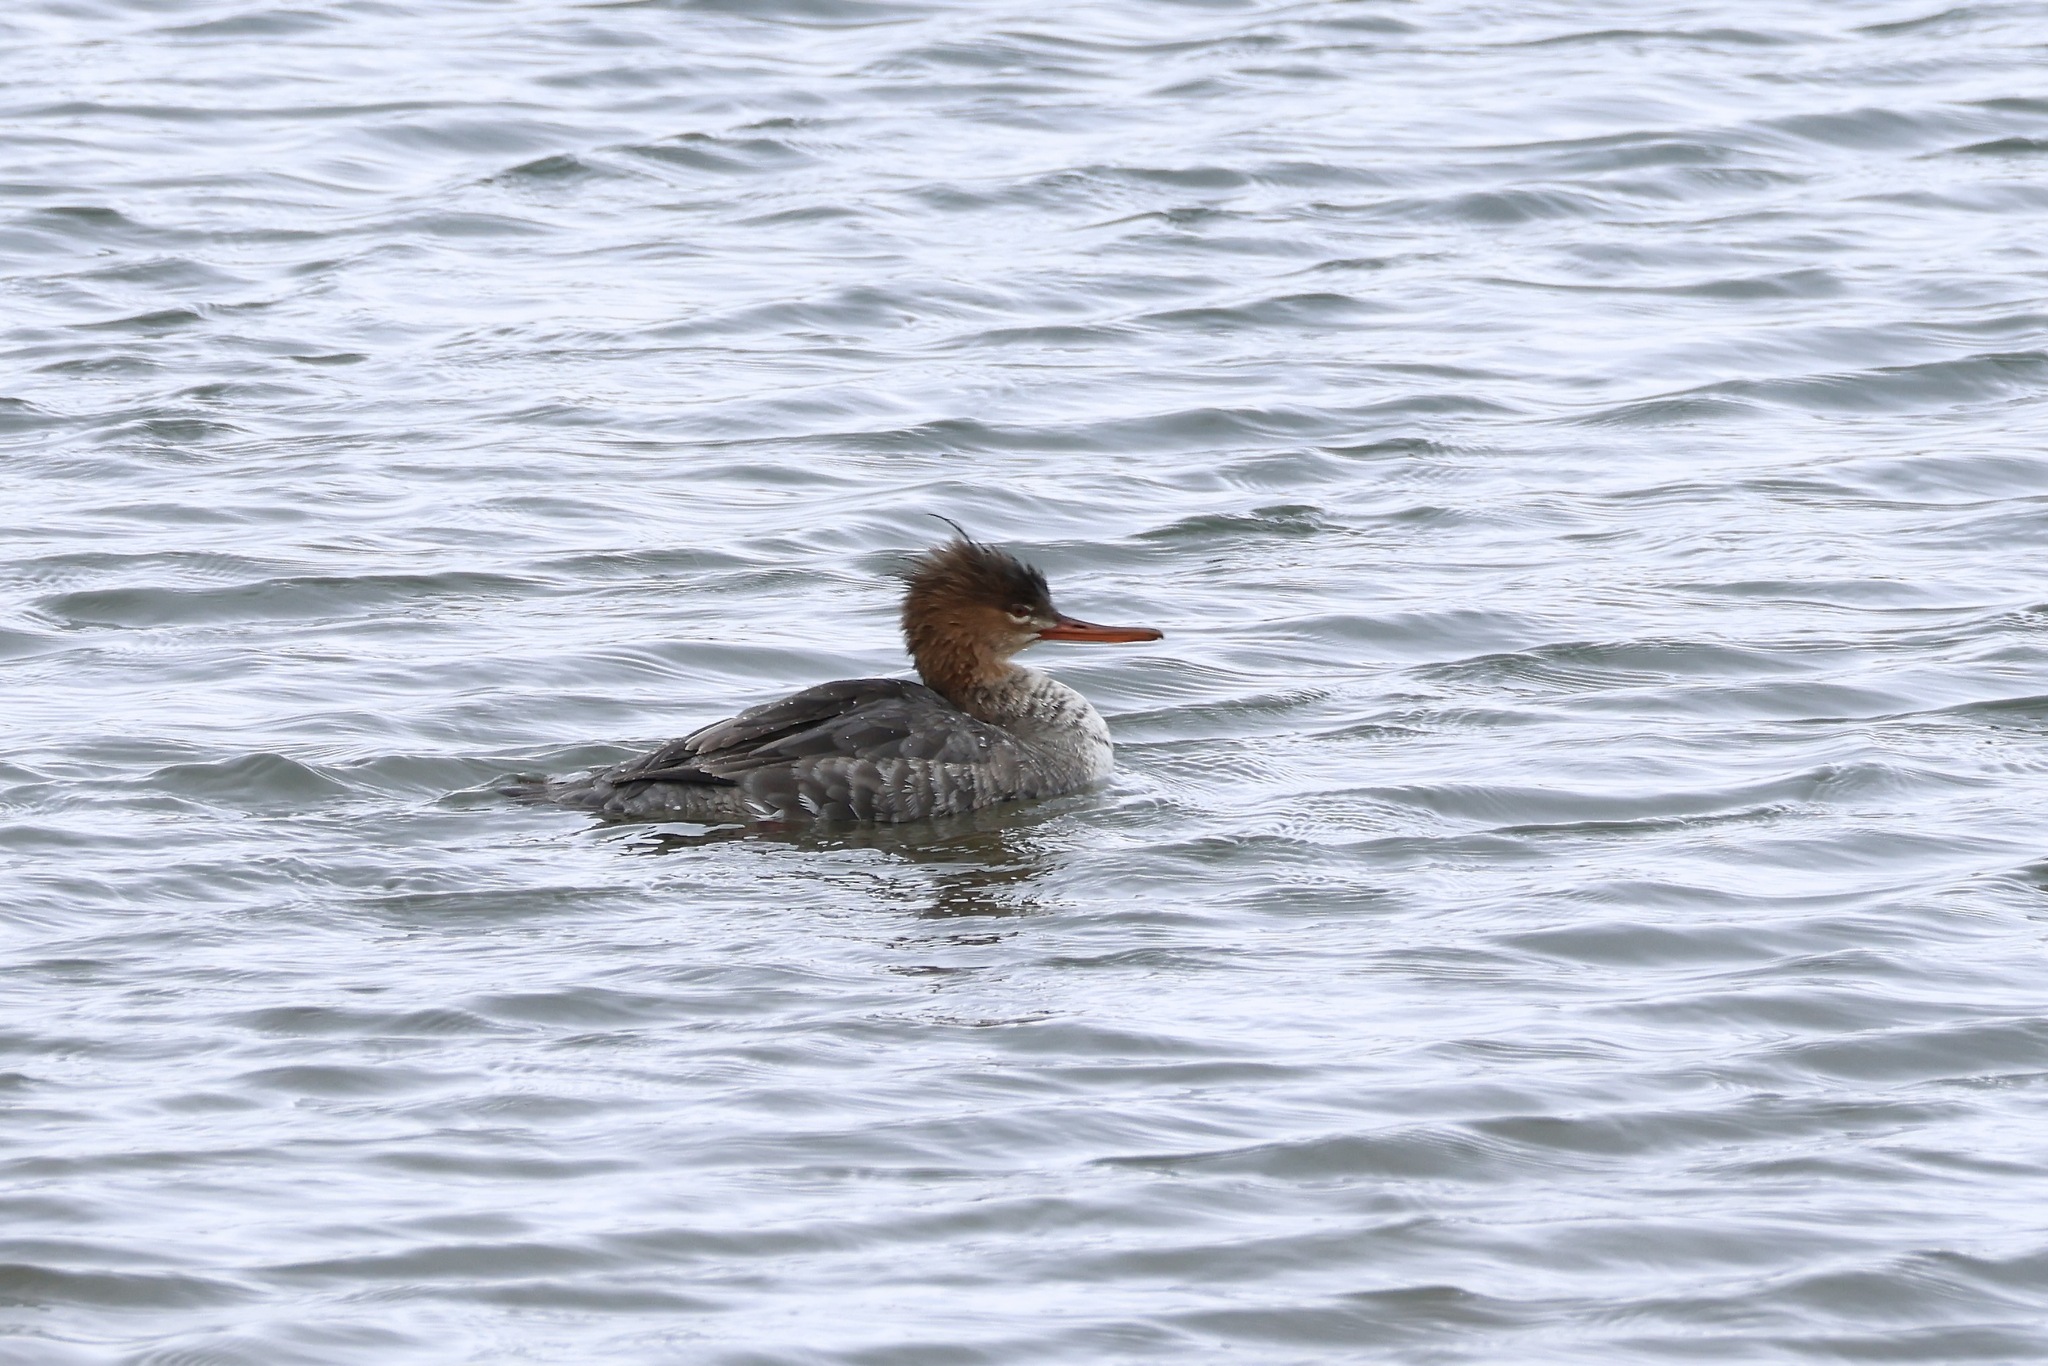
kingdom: Animalia
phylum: Chordata
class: Aves
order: Anseriformes
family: Anatidae
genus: Mergus
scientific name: Mergus serrator
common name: Red-breasted merganser
